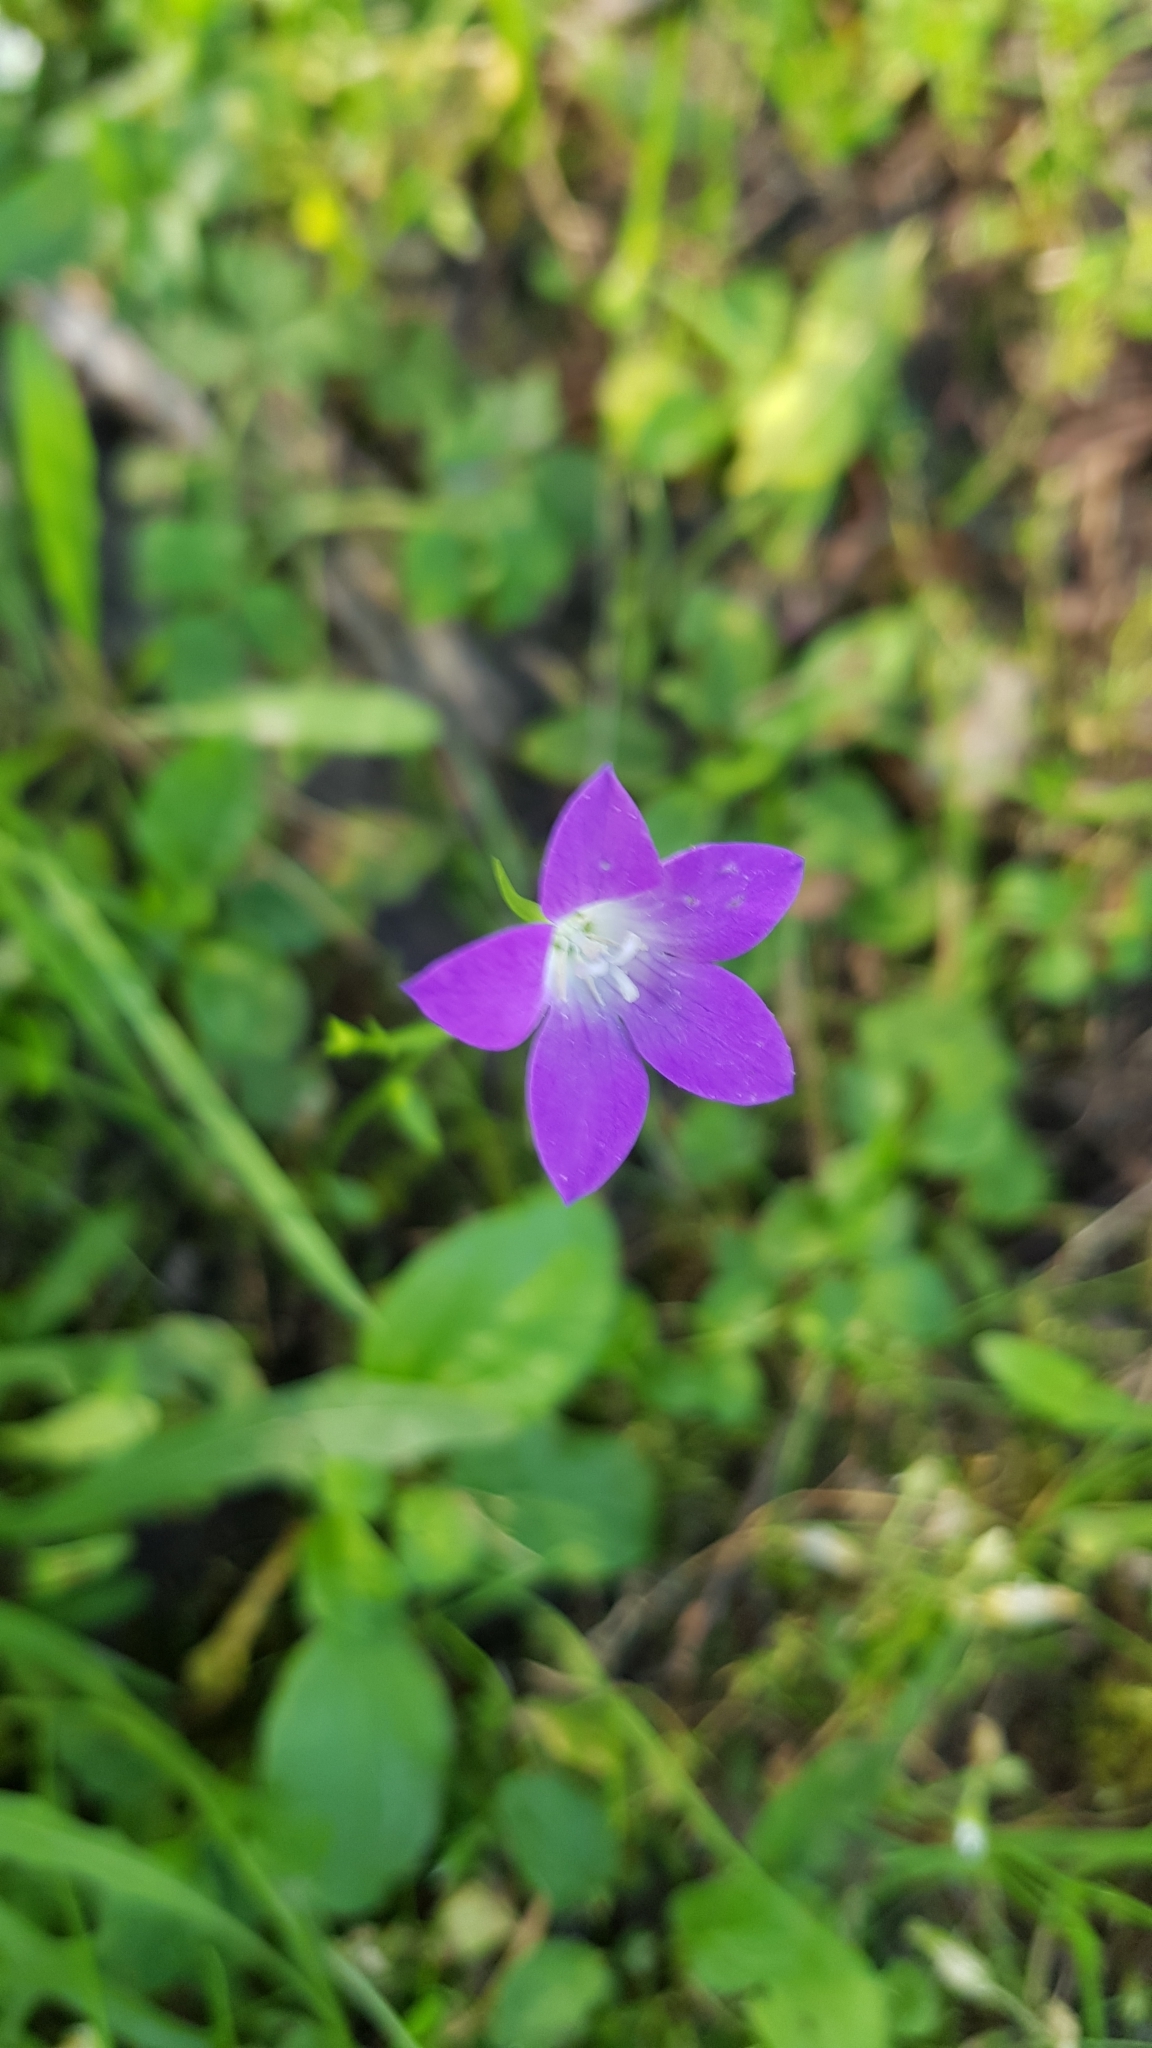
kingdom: Plantae
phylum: Tracheophyta
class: Magnoliopsida
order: Asterales
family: Campanulaceae
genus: Campanula
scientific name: Campanula patula
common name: Spreading bellflower
